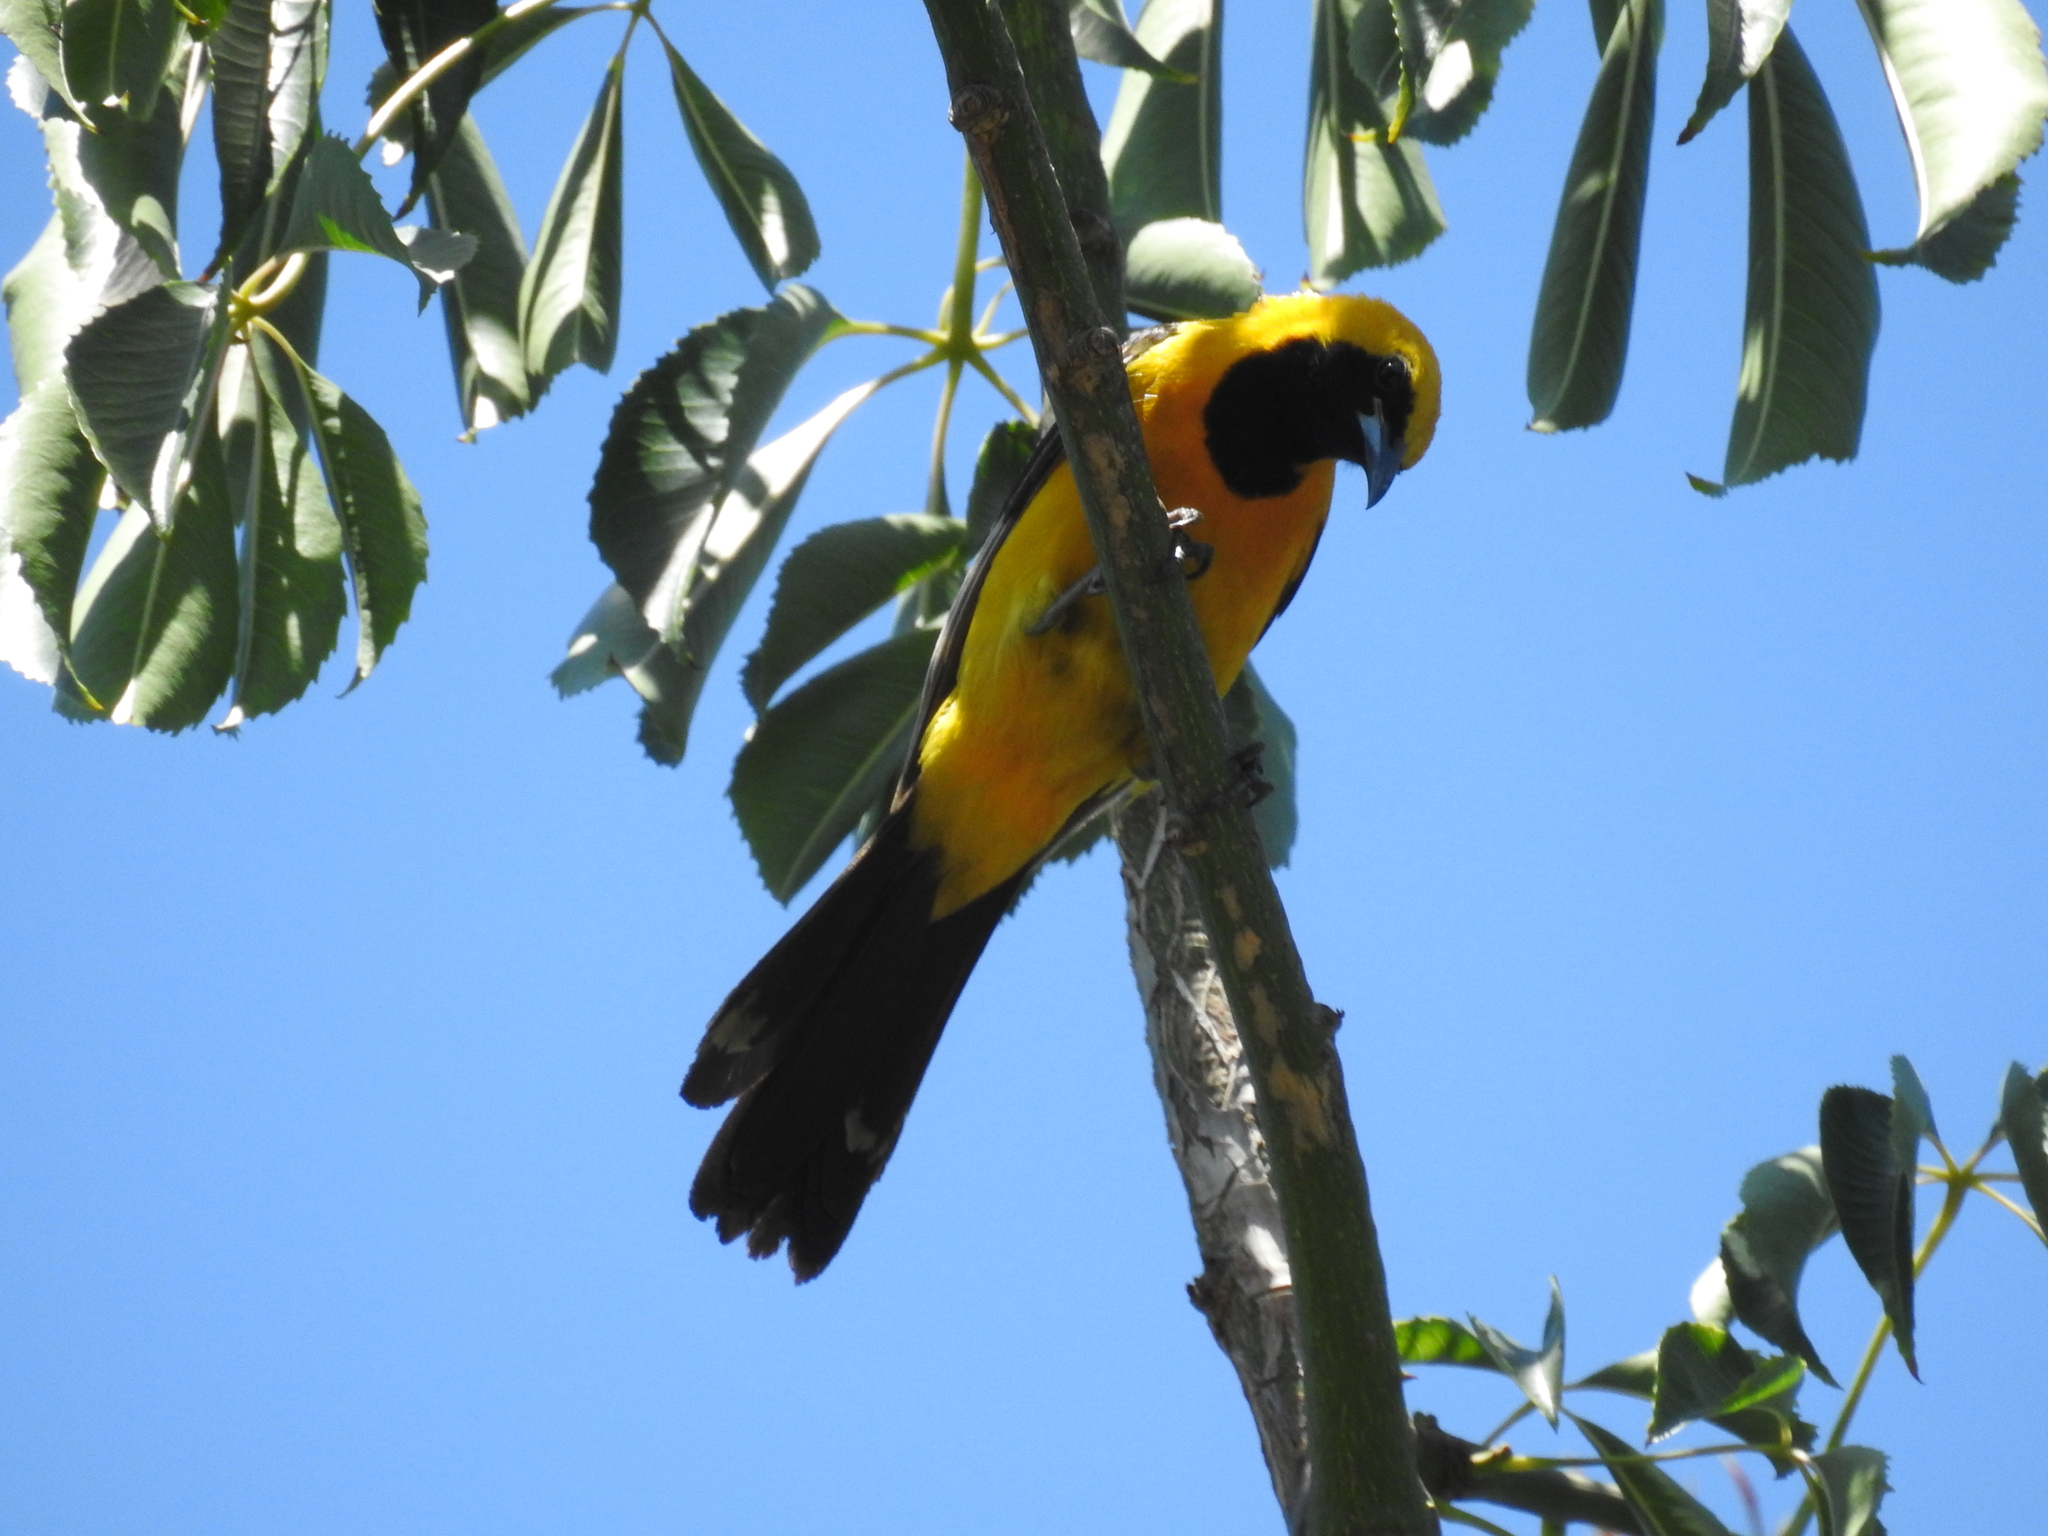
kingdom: Animalia
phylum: Chordata
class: Aves
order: Passeriformes
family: Icteridae
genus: Icterus
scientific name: Icterus cucullatus
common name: Hooded oriole
